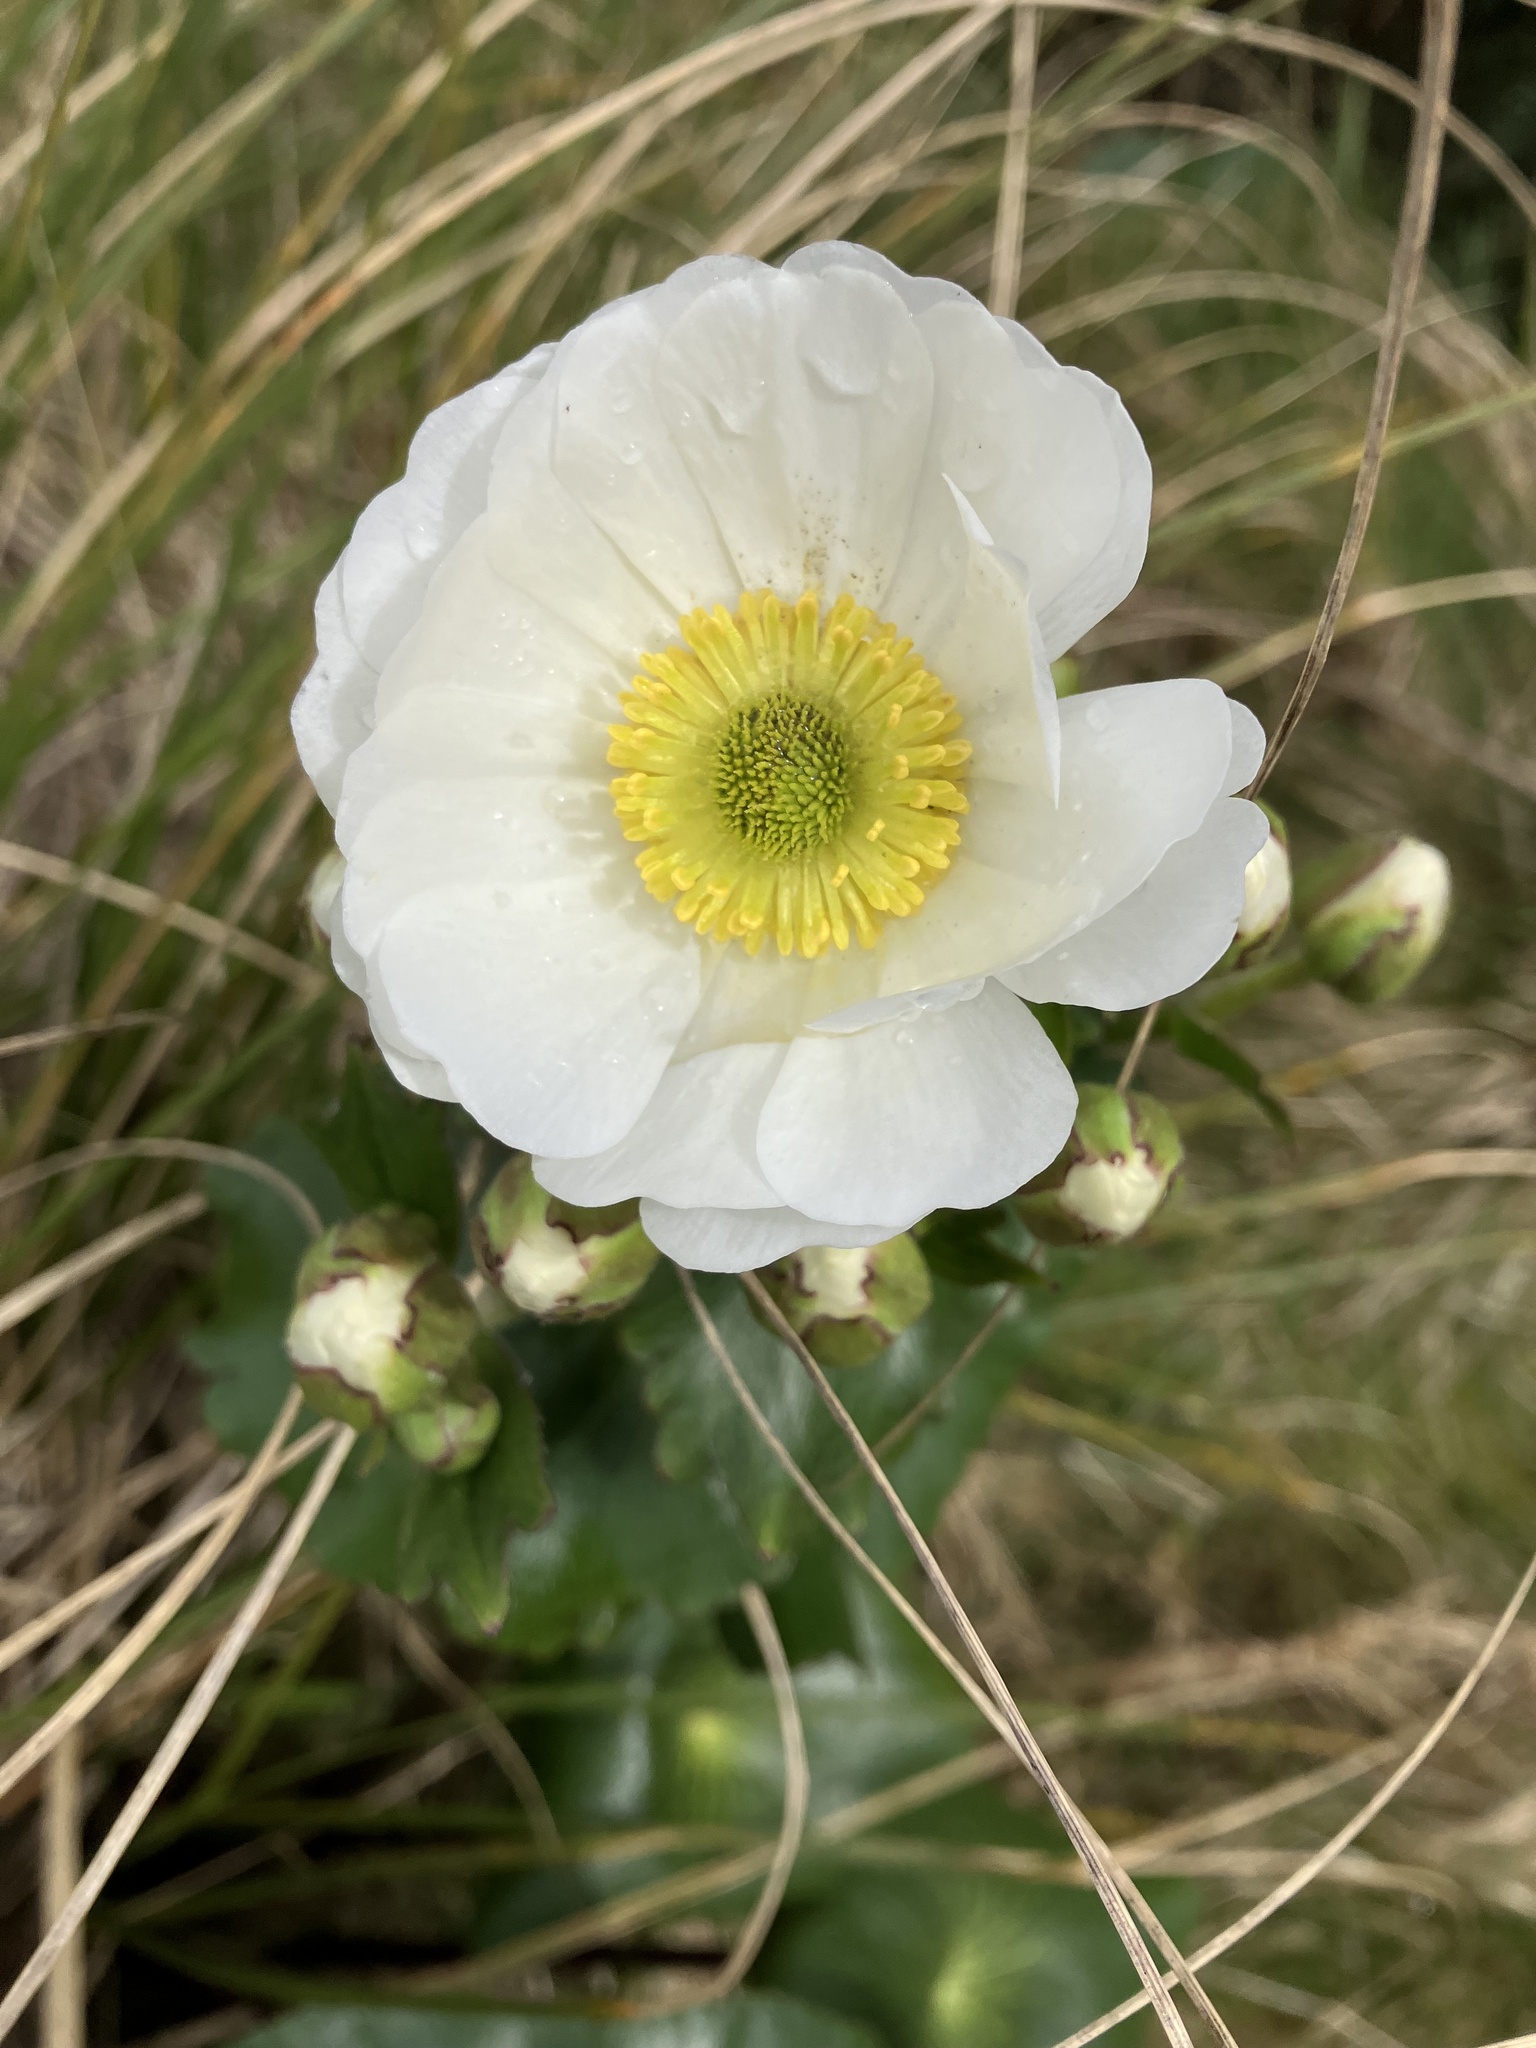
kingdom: Plantae
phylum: Tracheophyta
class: Magnoliopsida
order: Ranunculales
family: Ranunculaceae
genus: Ranunculus
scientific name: Ranunculus lyallii
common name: Mountain-lily
